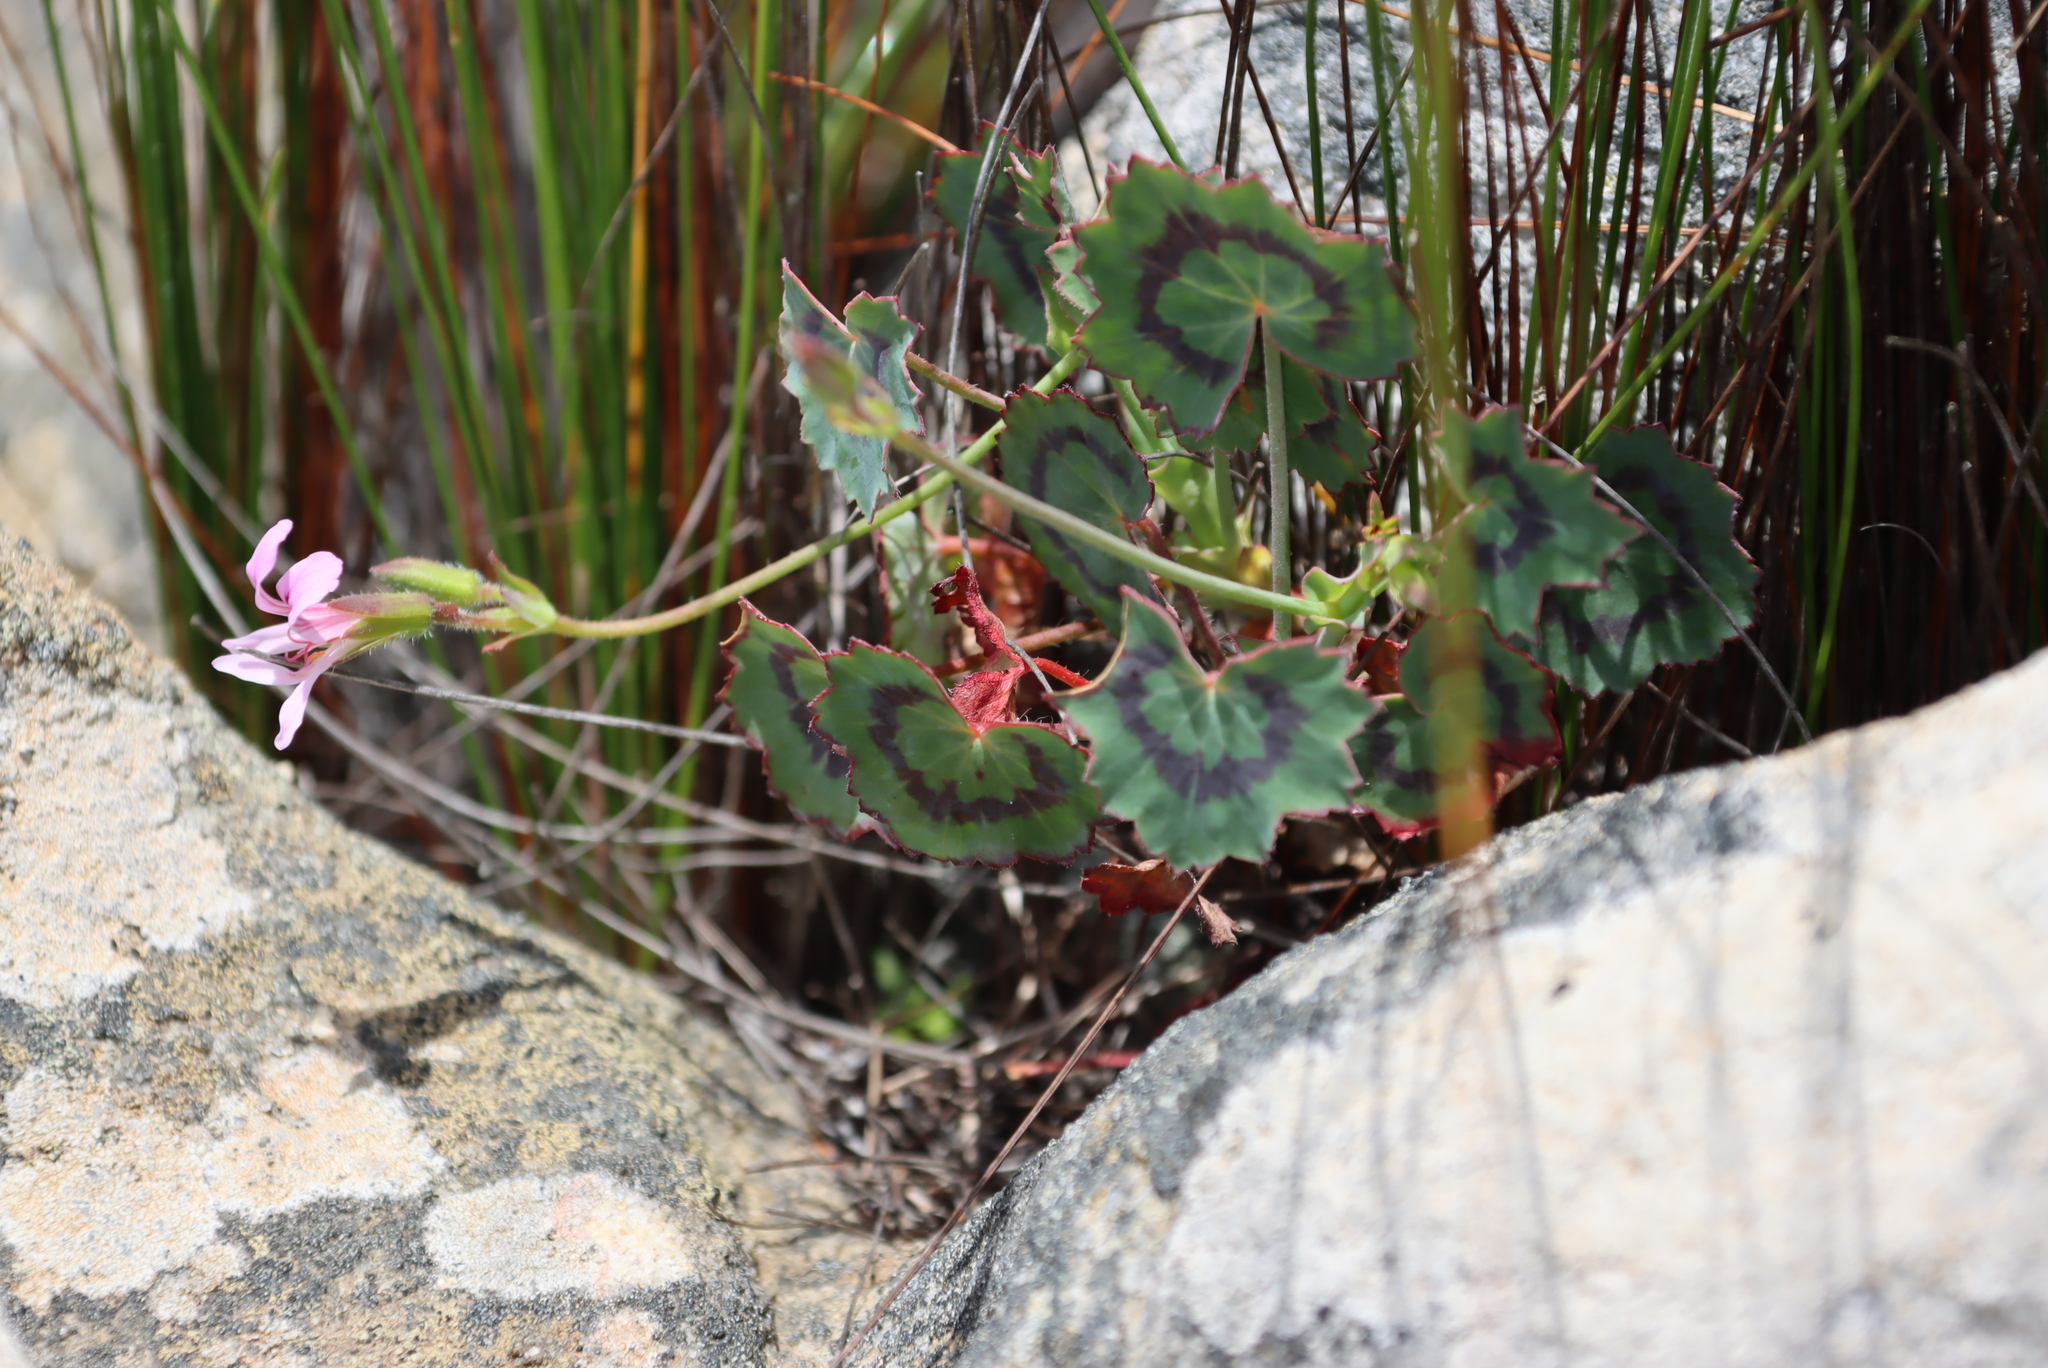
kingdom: Plantae
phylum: Tracheophyta
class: Magnoliopsida
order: Geraniales
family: Geraniaceae
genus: Pelargonium
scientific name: Pelargonium tabulare
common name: Table mountain pelargonium
